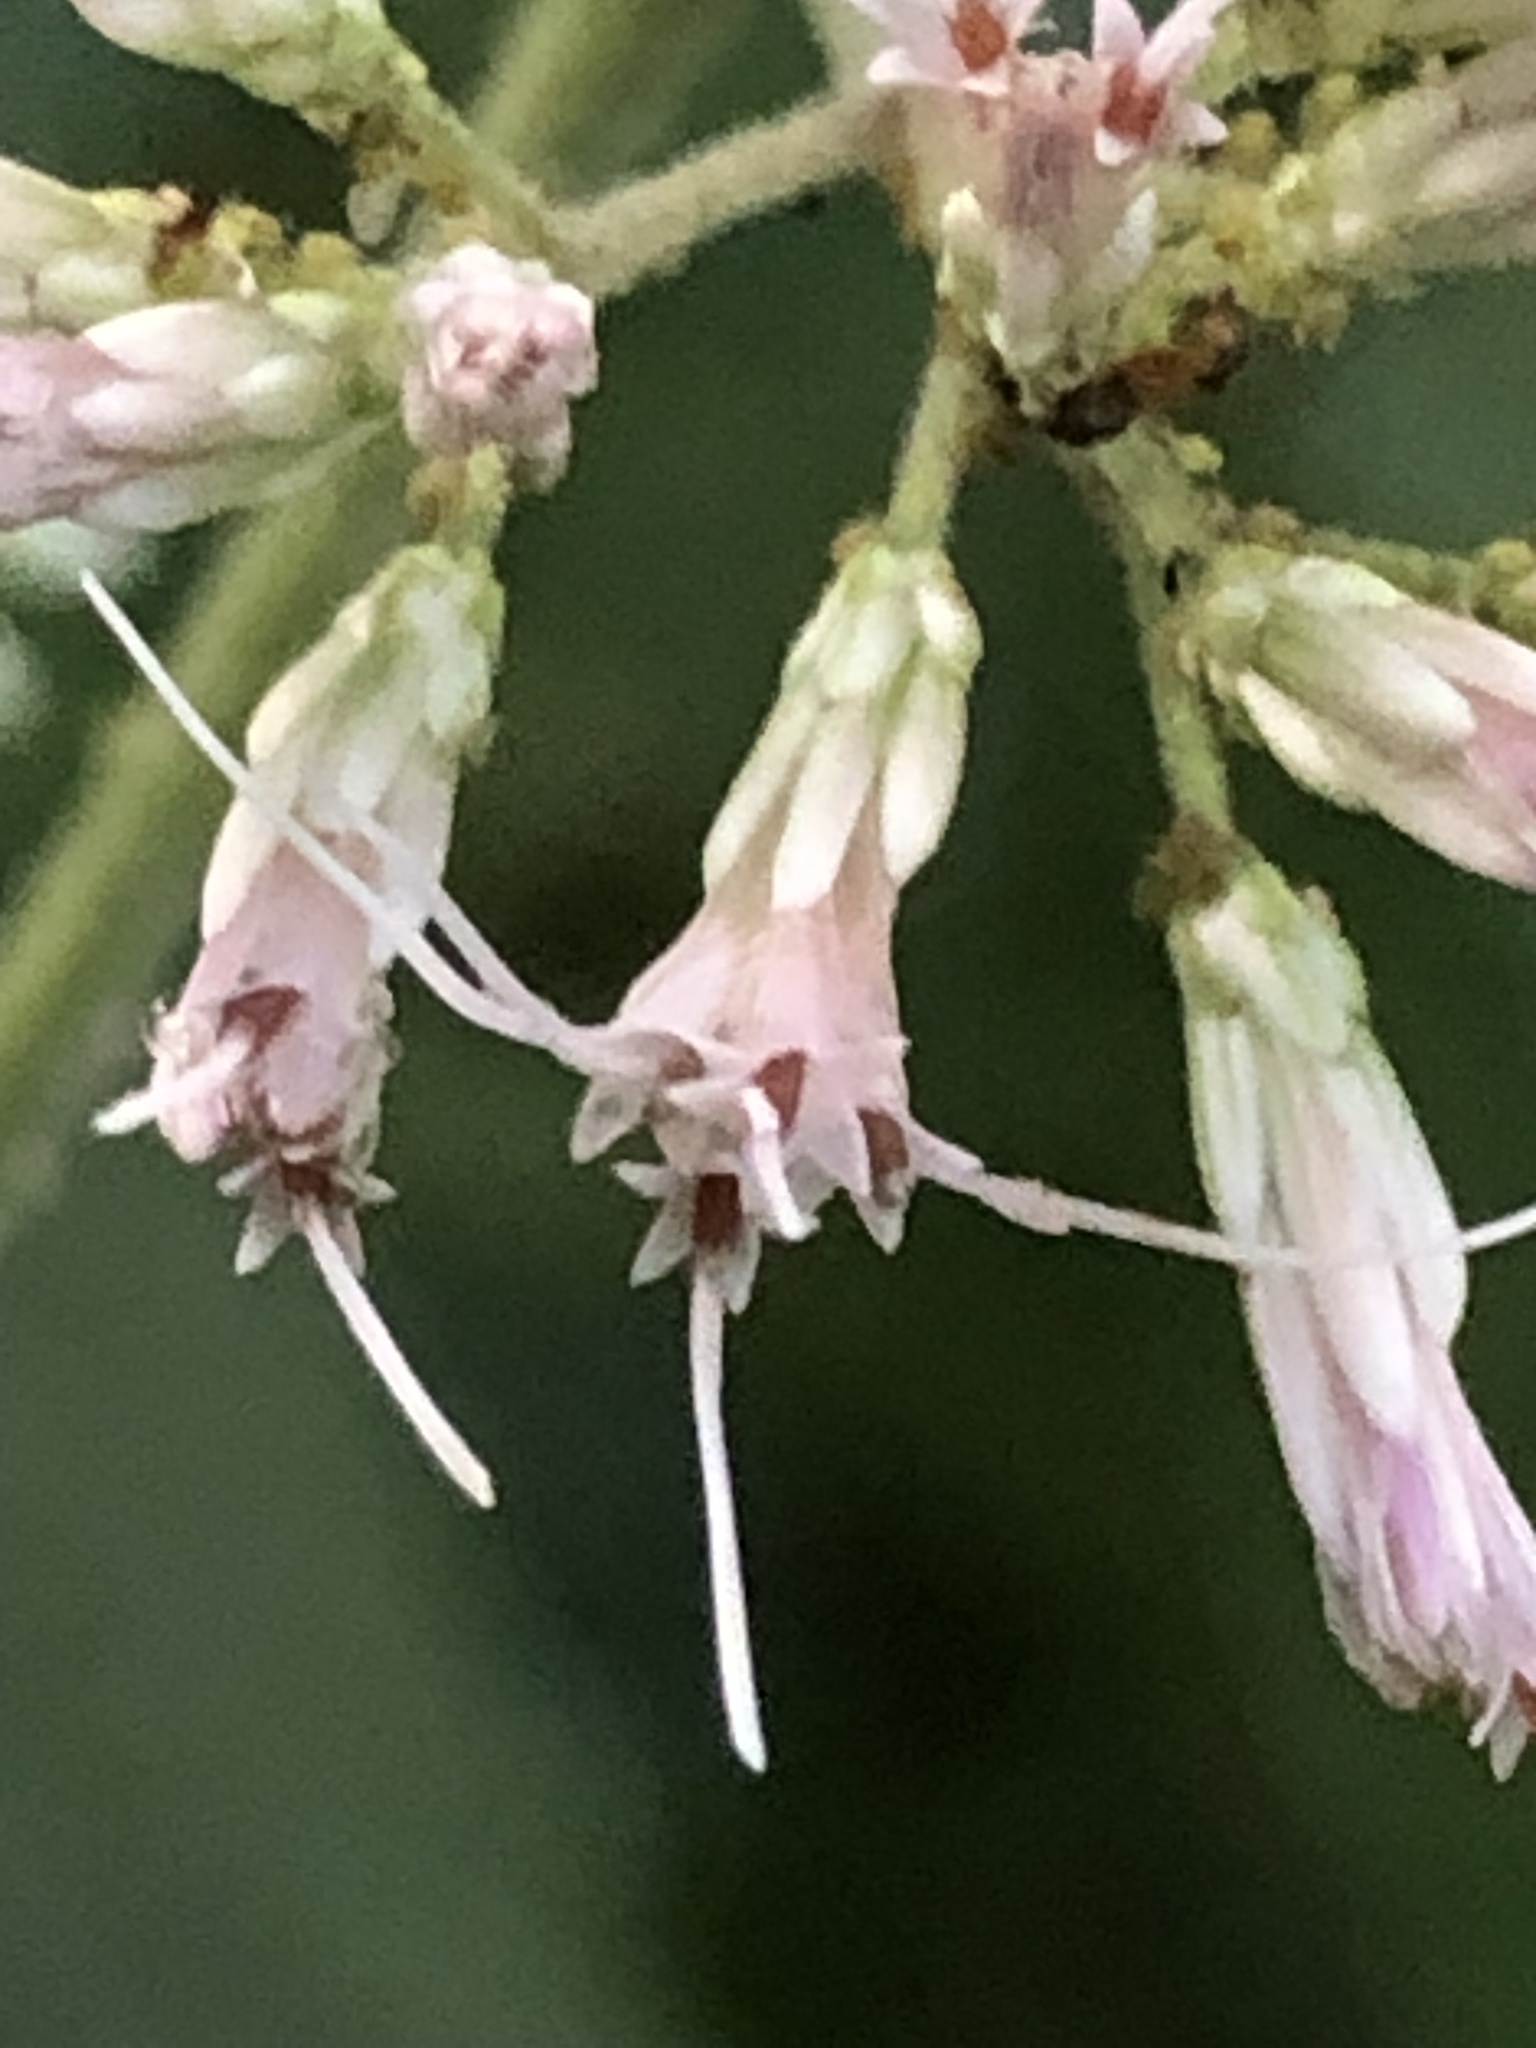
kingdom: Plantae
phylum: Tracheophyta
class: Magnoliopsida
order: Asterales
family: Asteraceae
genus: Eutrochium
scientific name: Eutrochium purpureum
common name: Gravelroot
